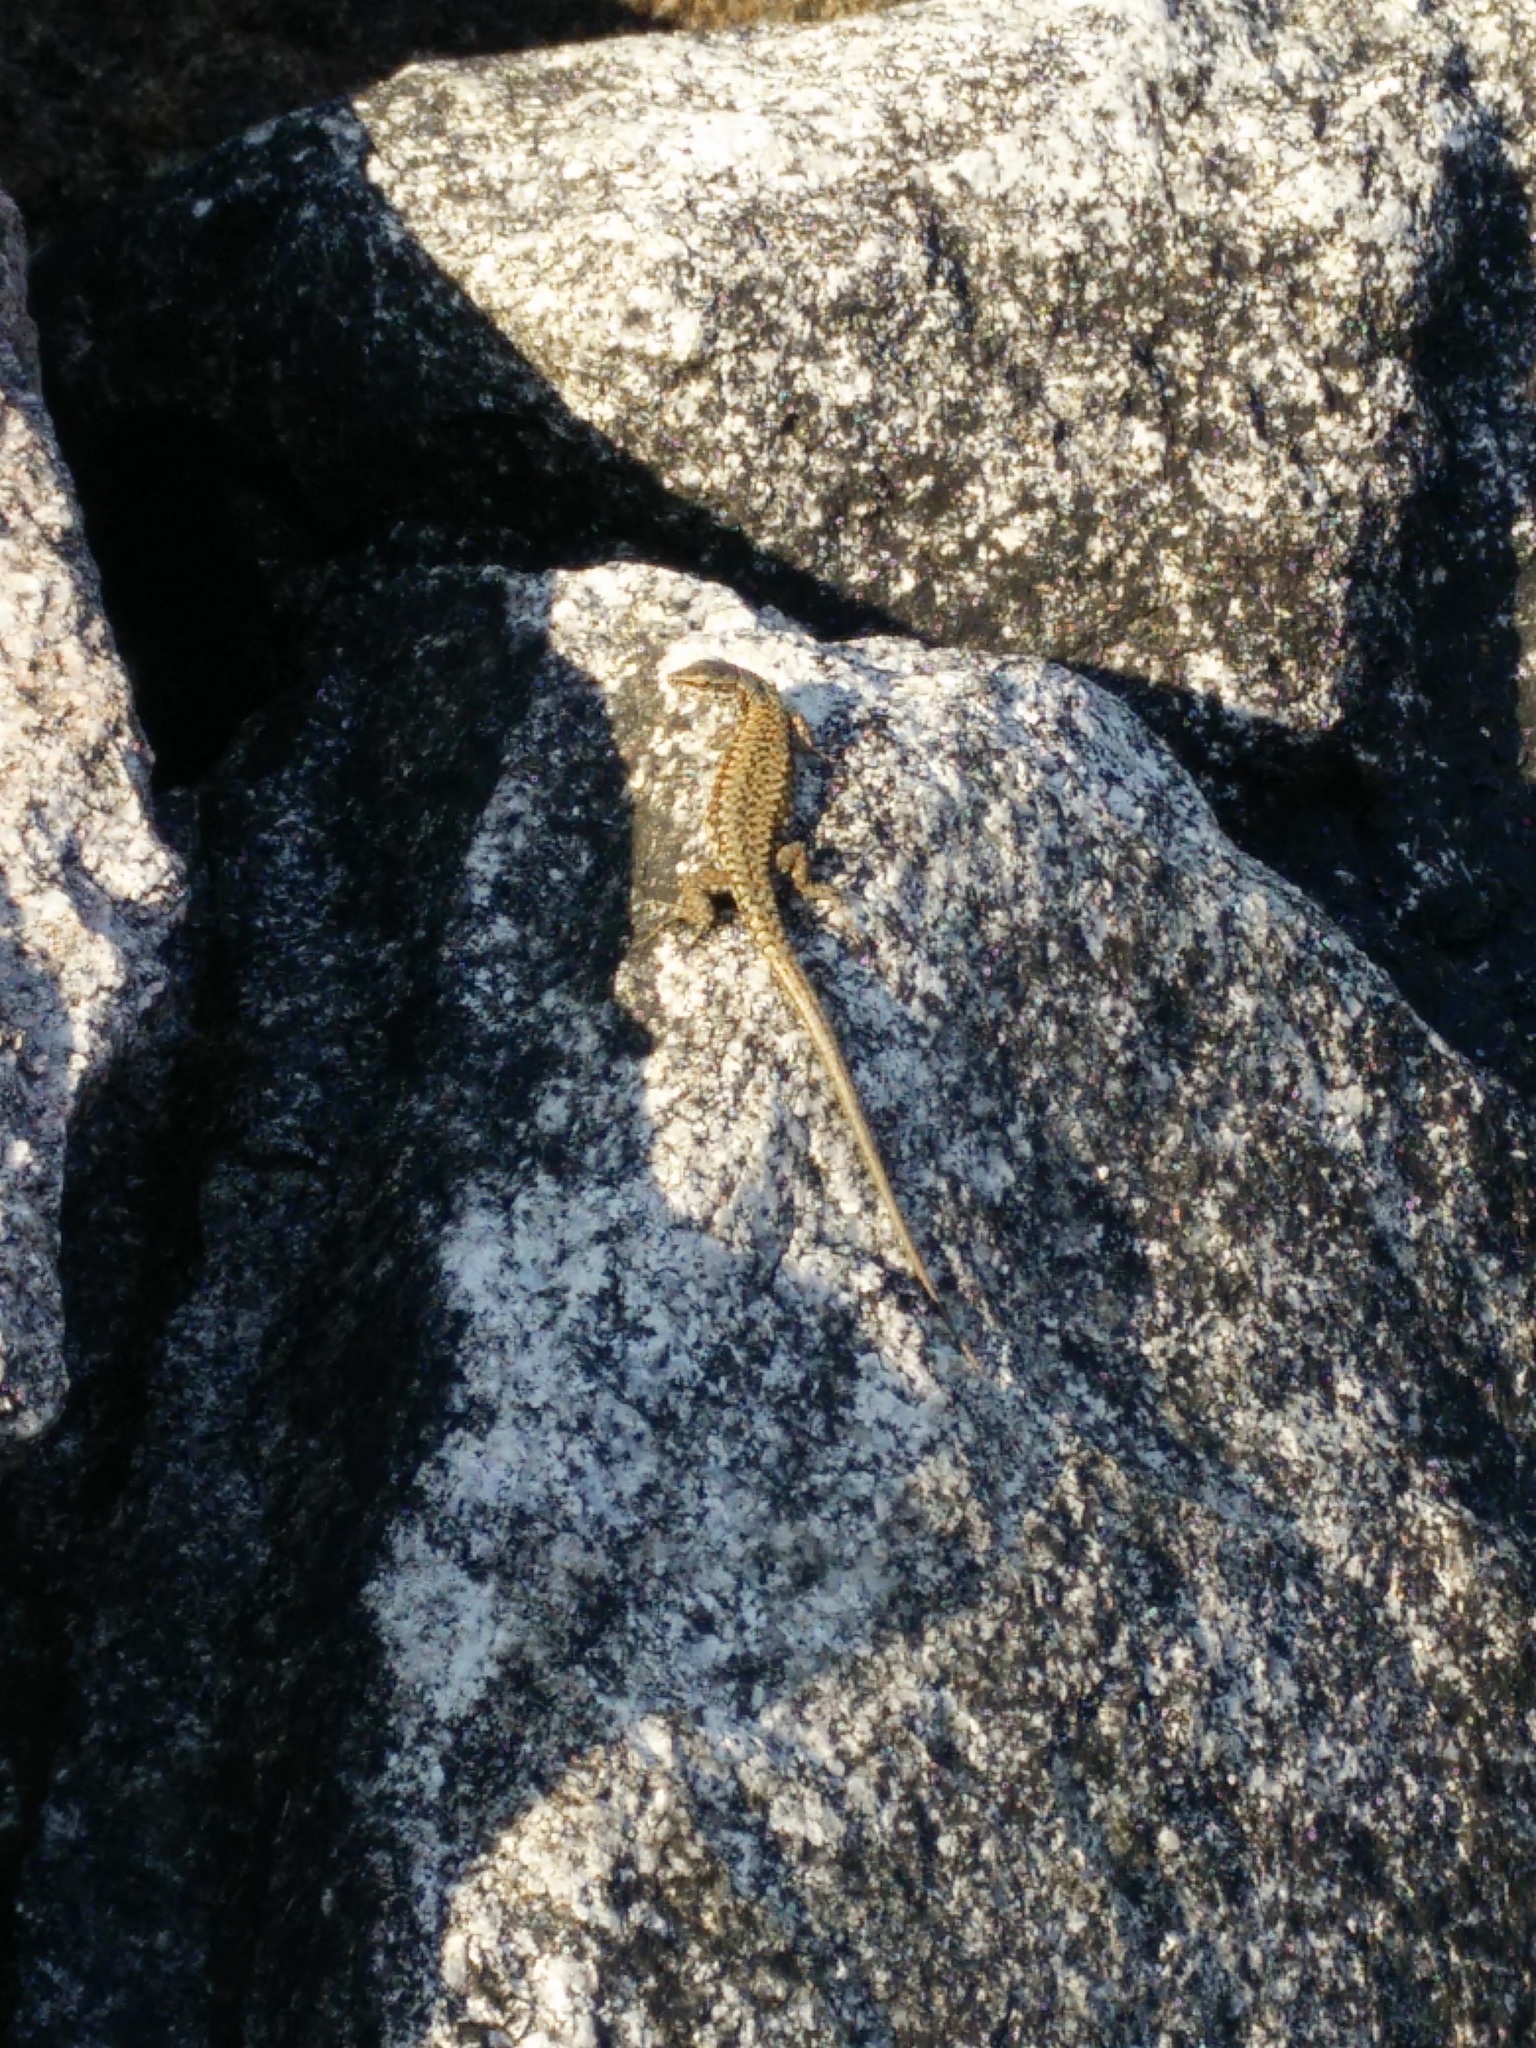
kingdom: Animalia
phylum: Chordata
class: Squamata
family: Lacertidae
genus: Podarcis
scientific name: Podarcis muralis
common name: Common wall lizard
